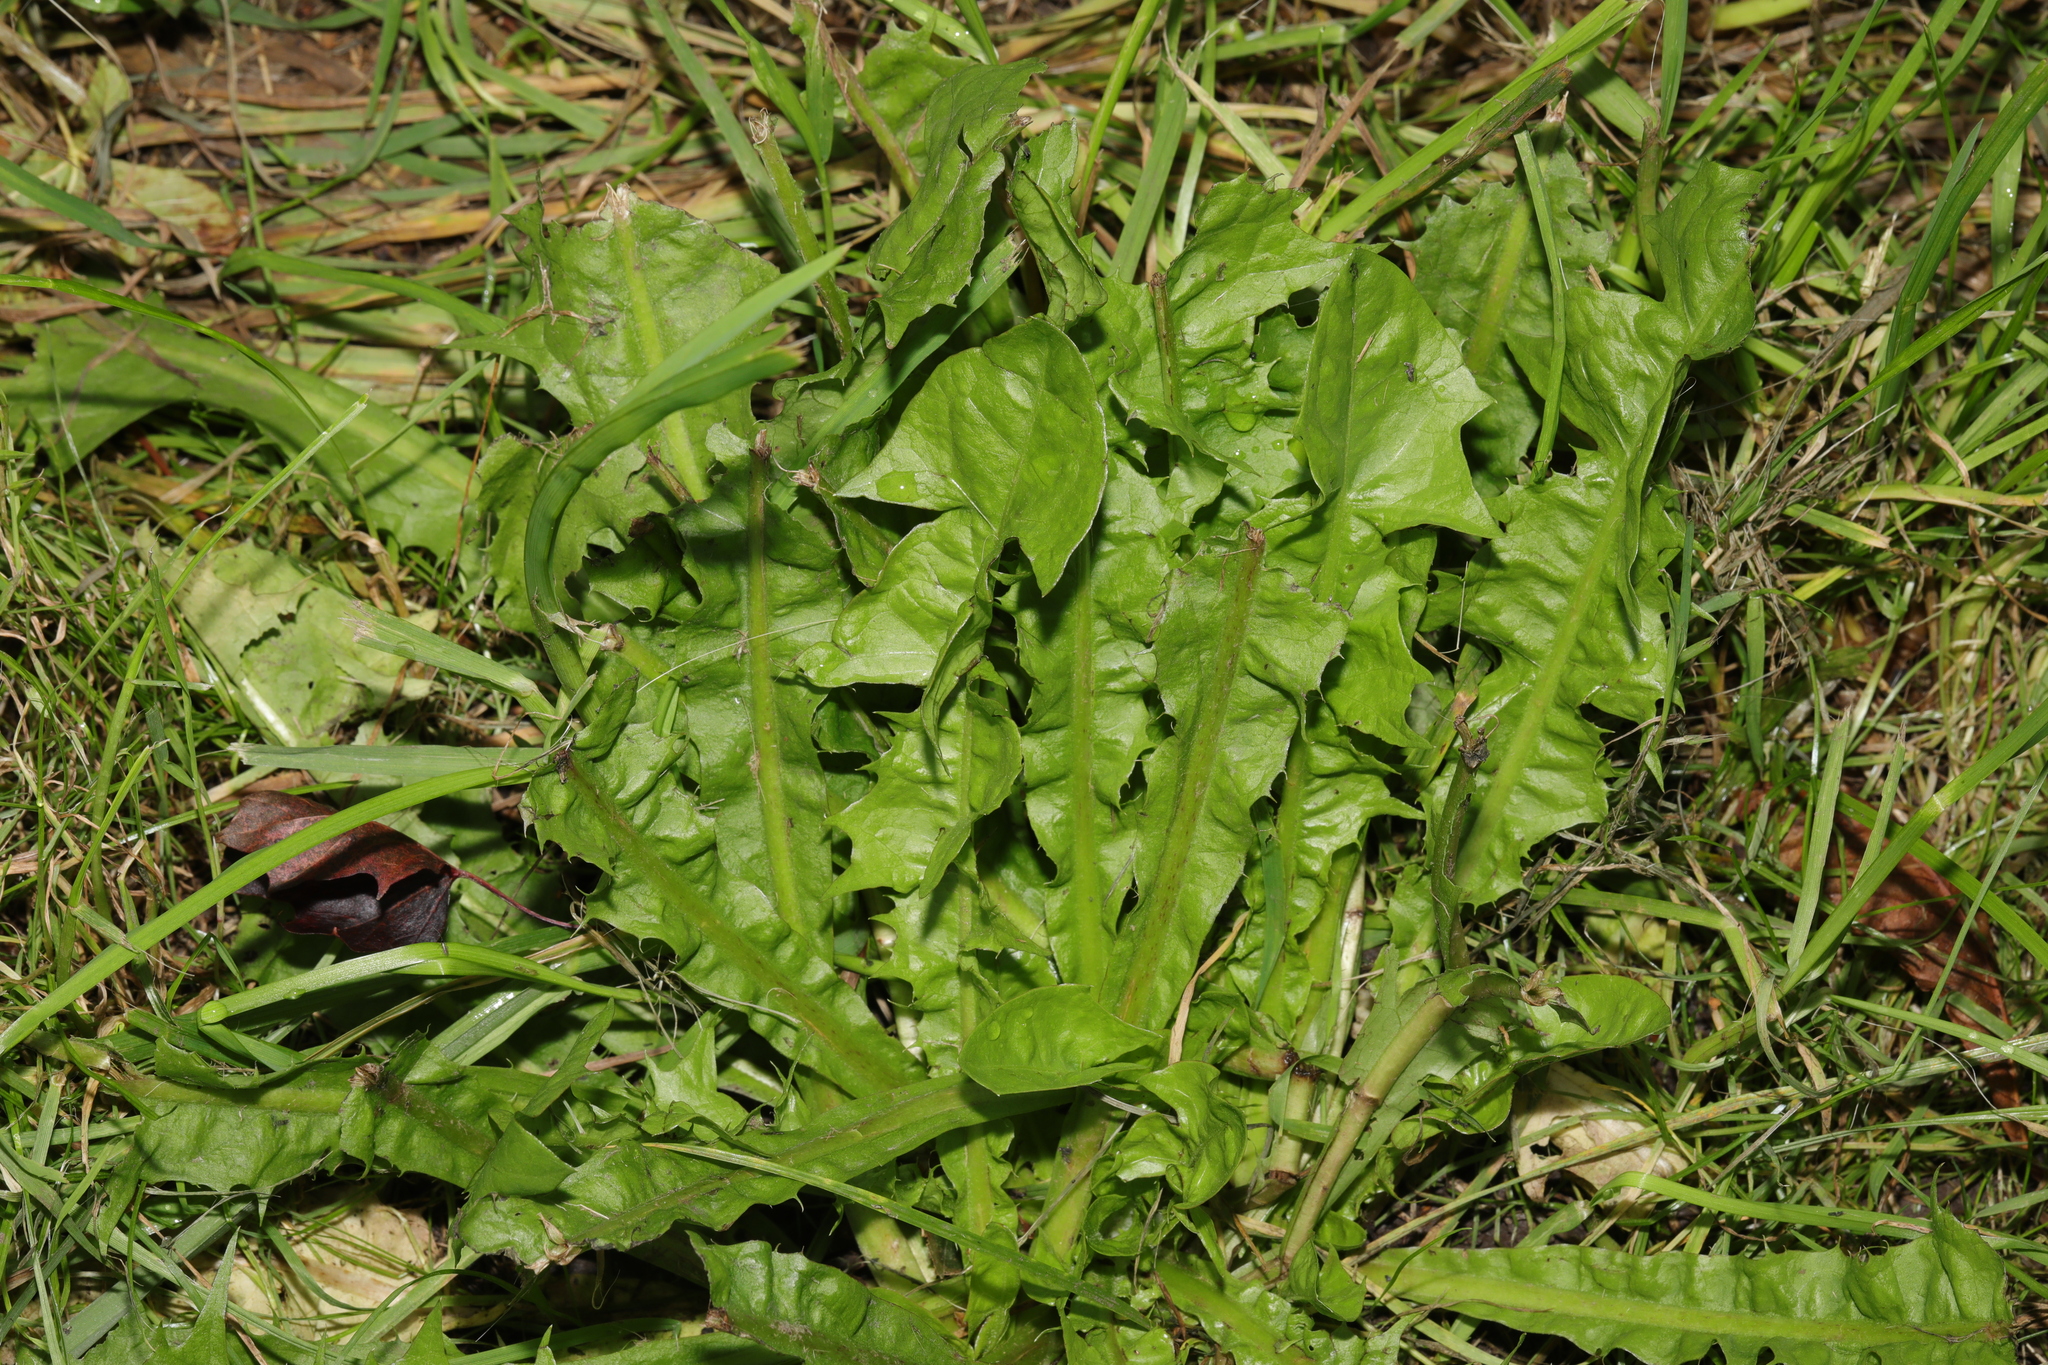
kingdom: Plantae
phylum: Tracheophyta
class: Magnoliopsida
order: Asterales
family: Asteraceae
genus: Taraxacum
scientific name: Taraxacum officinale
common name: Common dandelion
